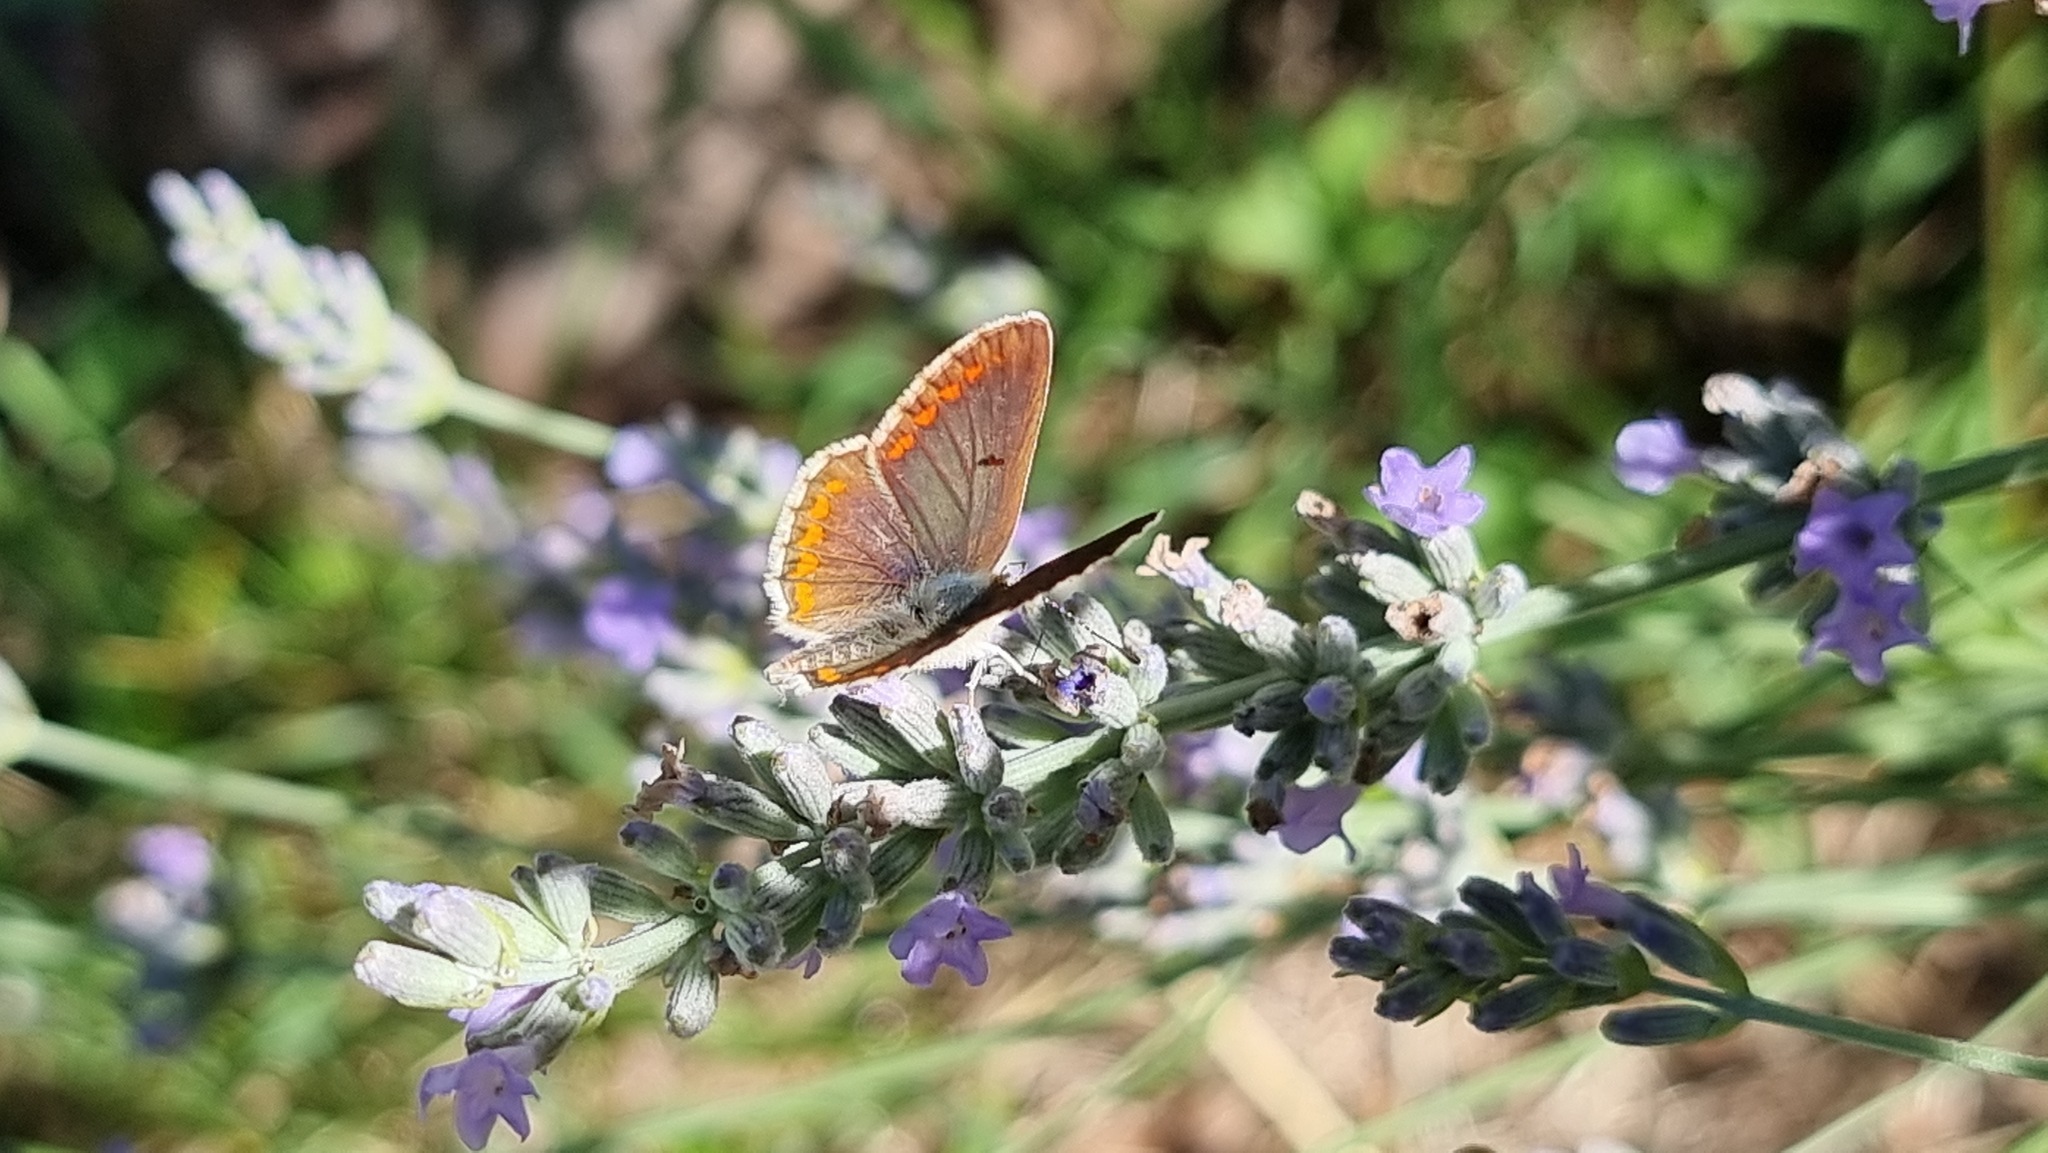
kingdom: Animalia
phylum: Arthropoda
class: Insecta
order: Lepidoptera
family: Lycaenidae
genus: Aricia
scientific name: Aricia agestis
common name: Brown argus
